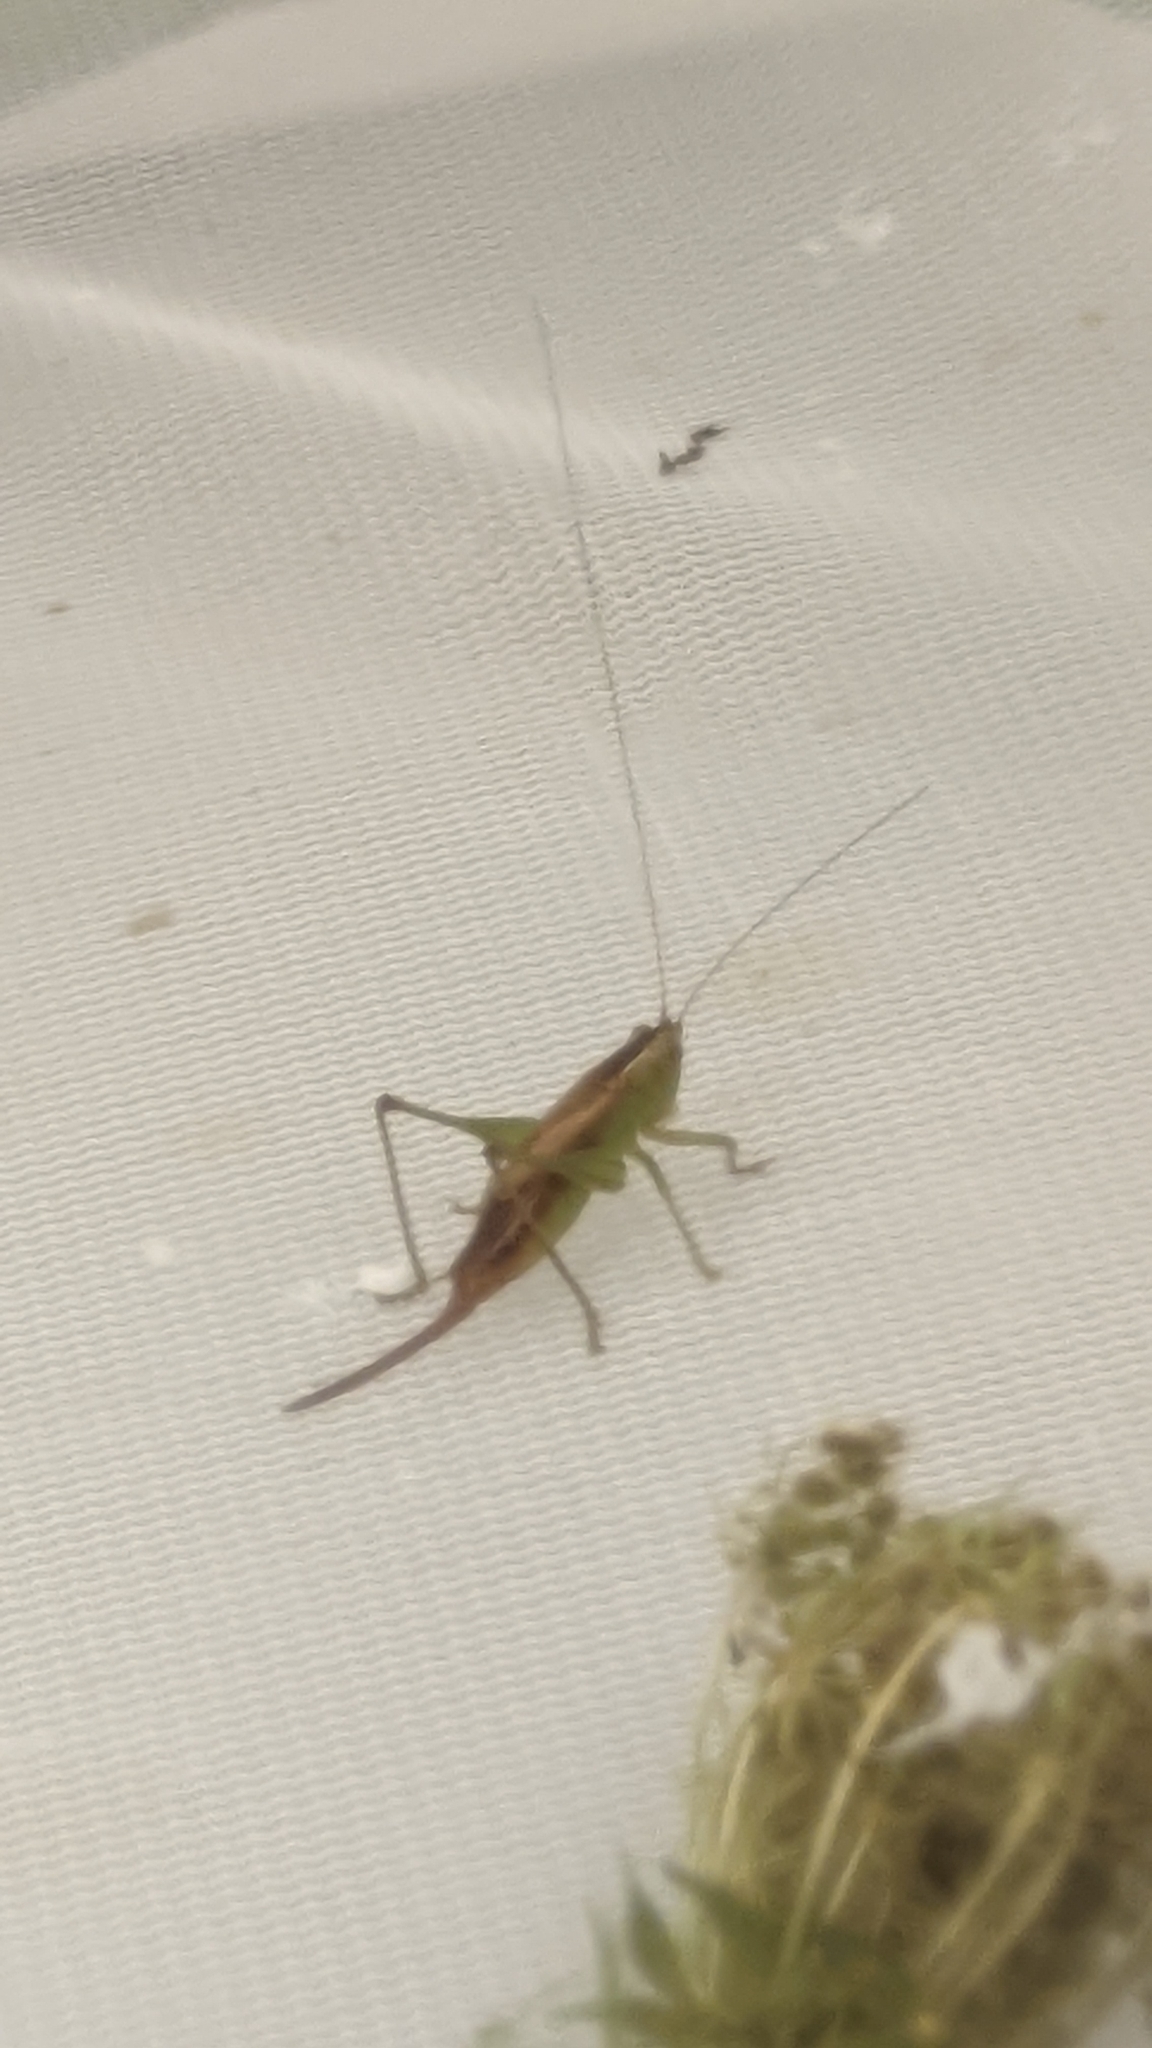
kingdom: Animalia
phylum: Arthropoda
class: Insecta
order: Orthoptera
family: Tettigoniidae
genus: Conocephalus
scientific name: Conocephalus brevipennis
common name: Short-winged meadow katydid
